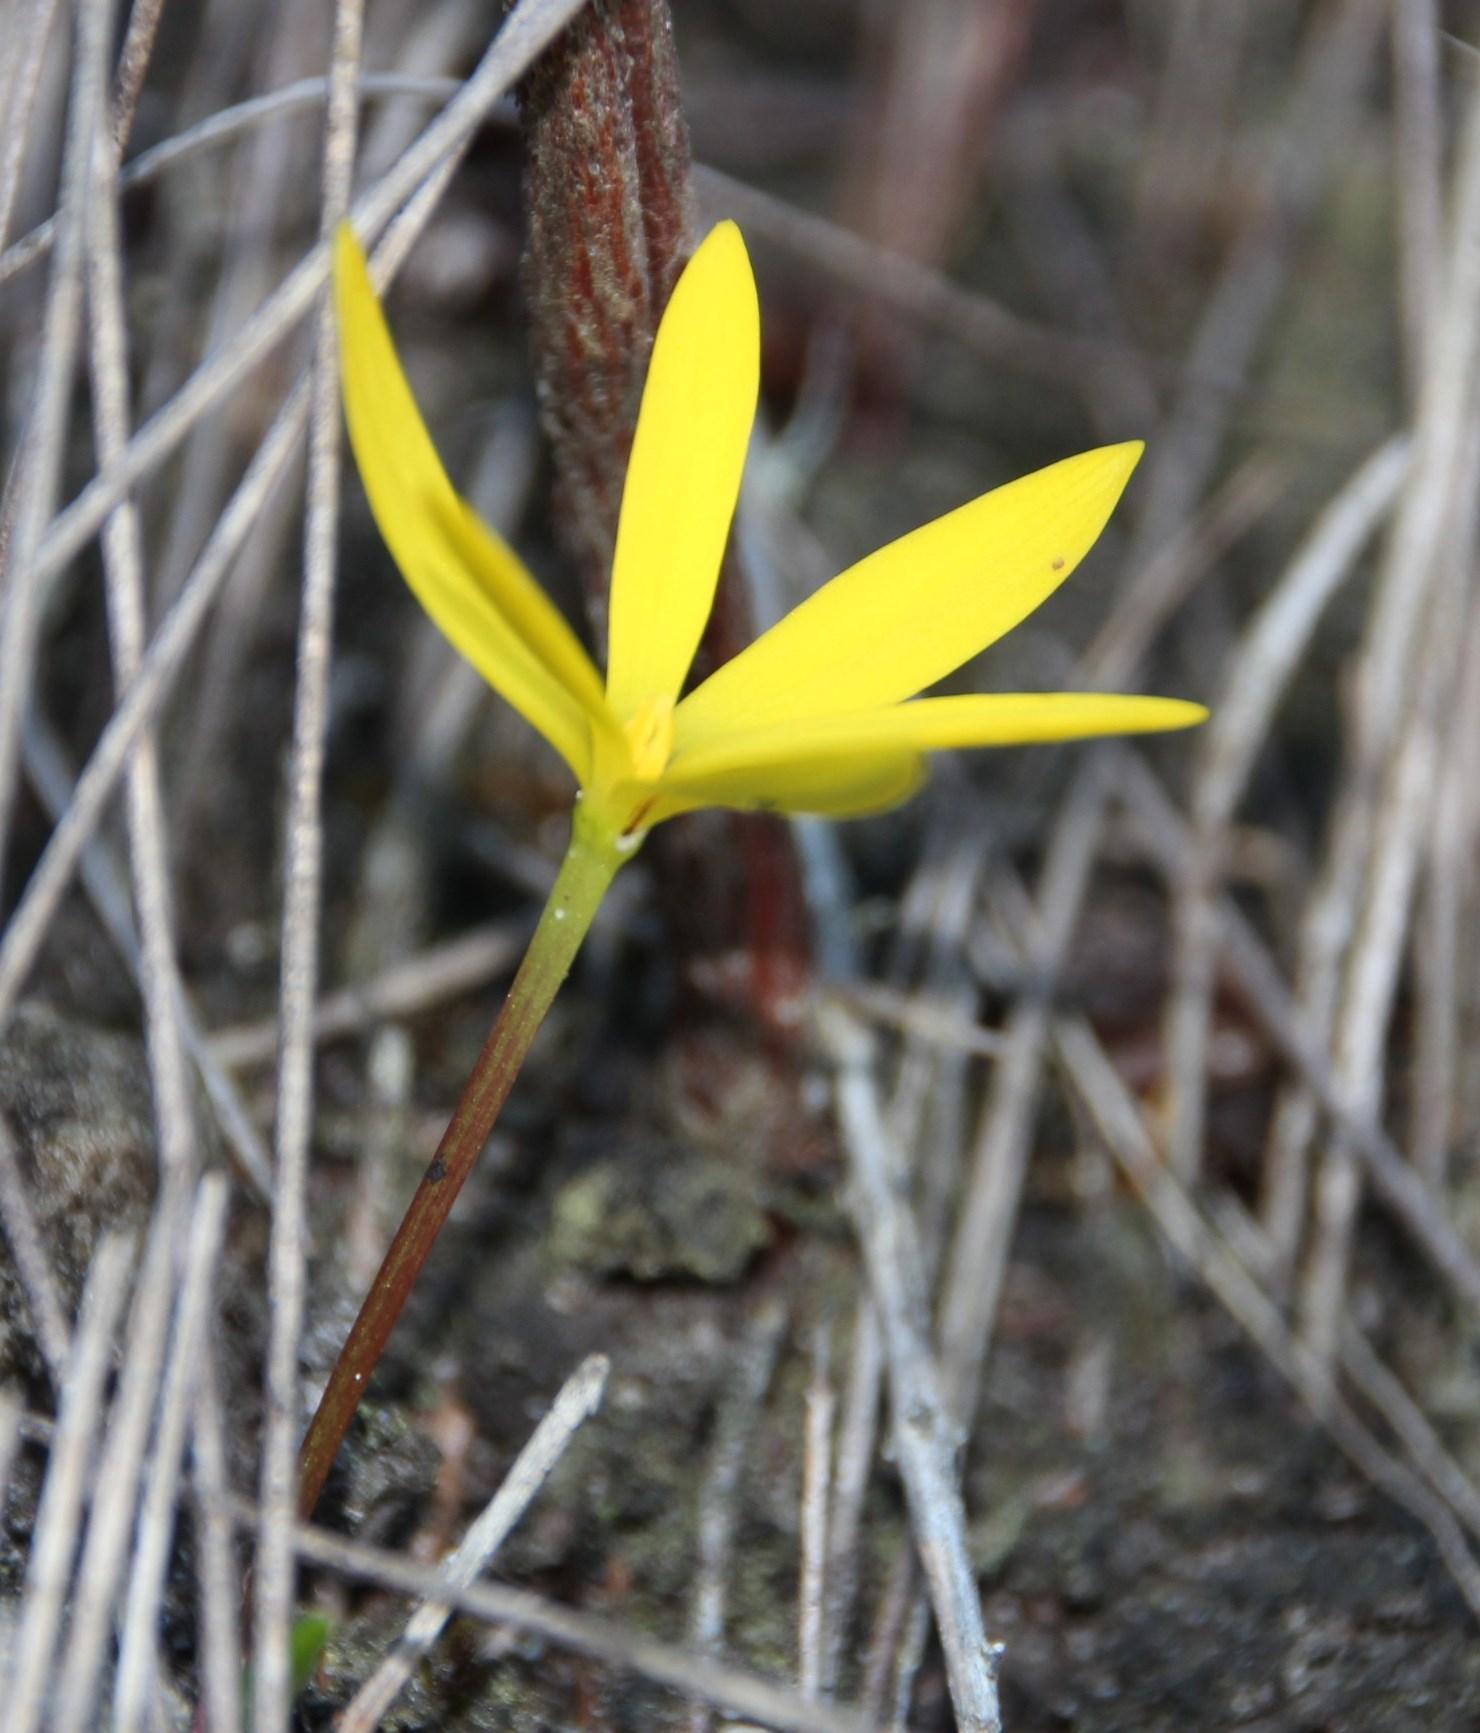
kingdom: Plantae
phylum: Tracheophyta
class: Liliopsida
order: Asparagales
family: Hypoxidaceae
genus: Pauridia
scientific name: Pauridia monophylla
